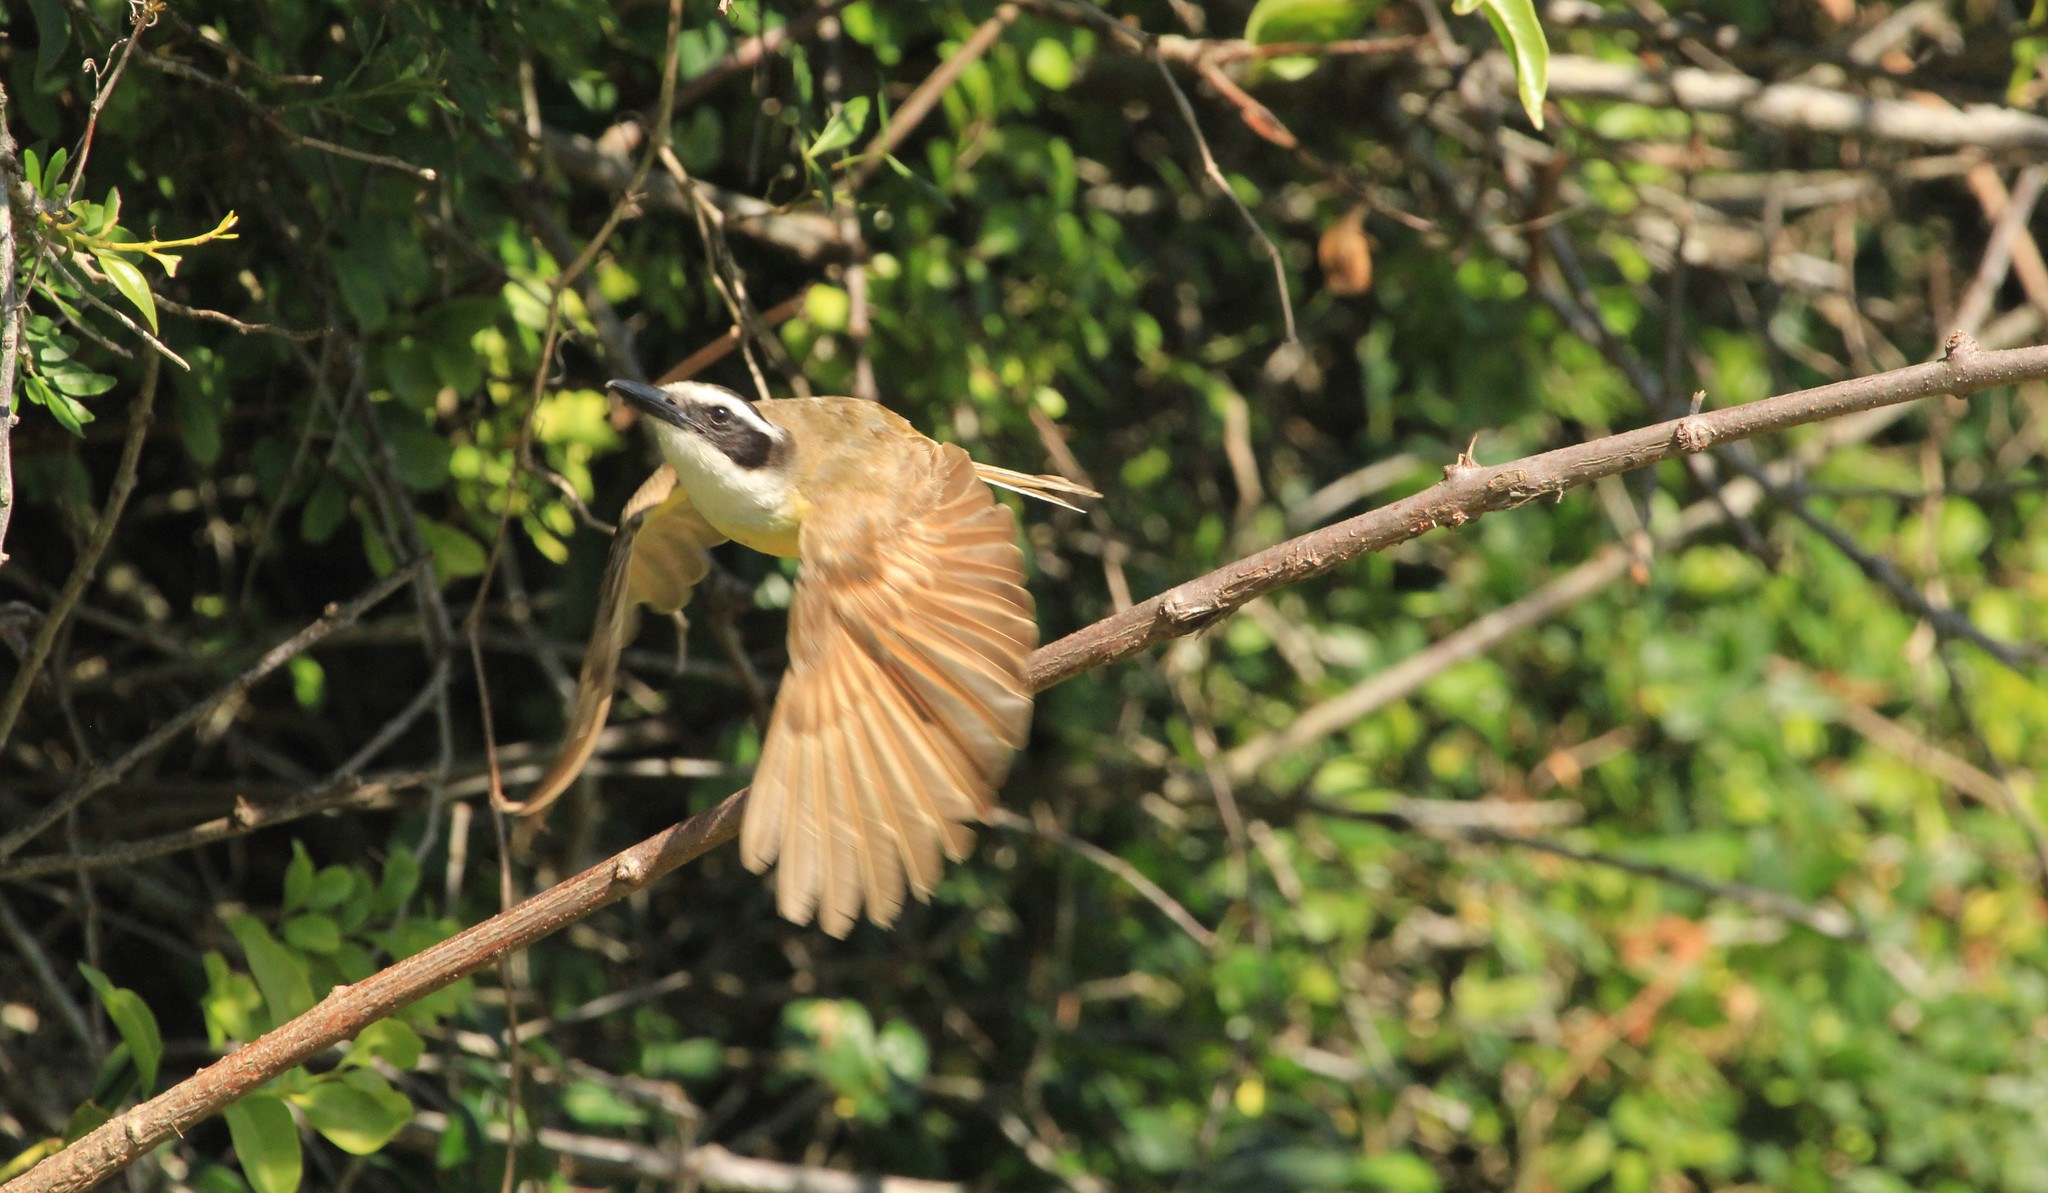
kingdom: Animalia
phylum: Chordata
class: Aves
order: Passeriformes
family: Tyrannidae
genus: Pitangus
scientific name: Pitangus sulphuratus
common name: Great kiskadee
